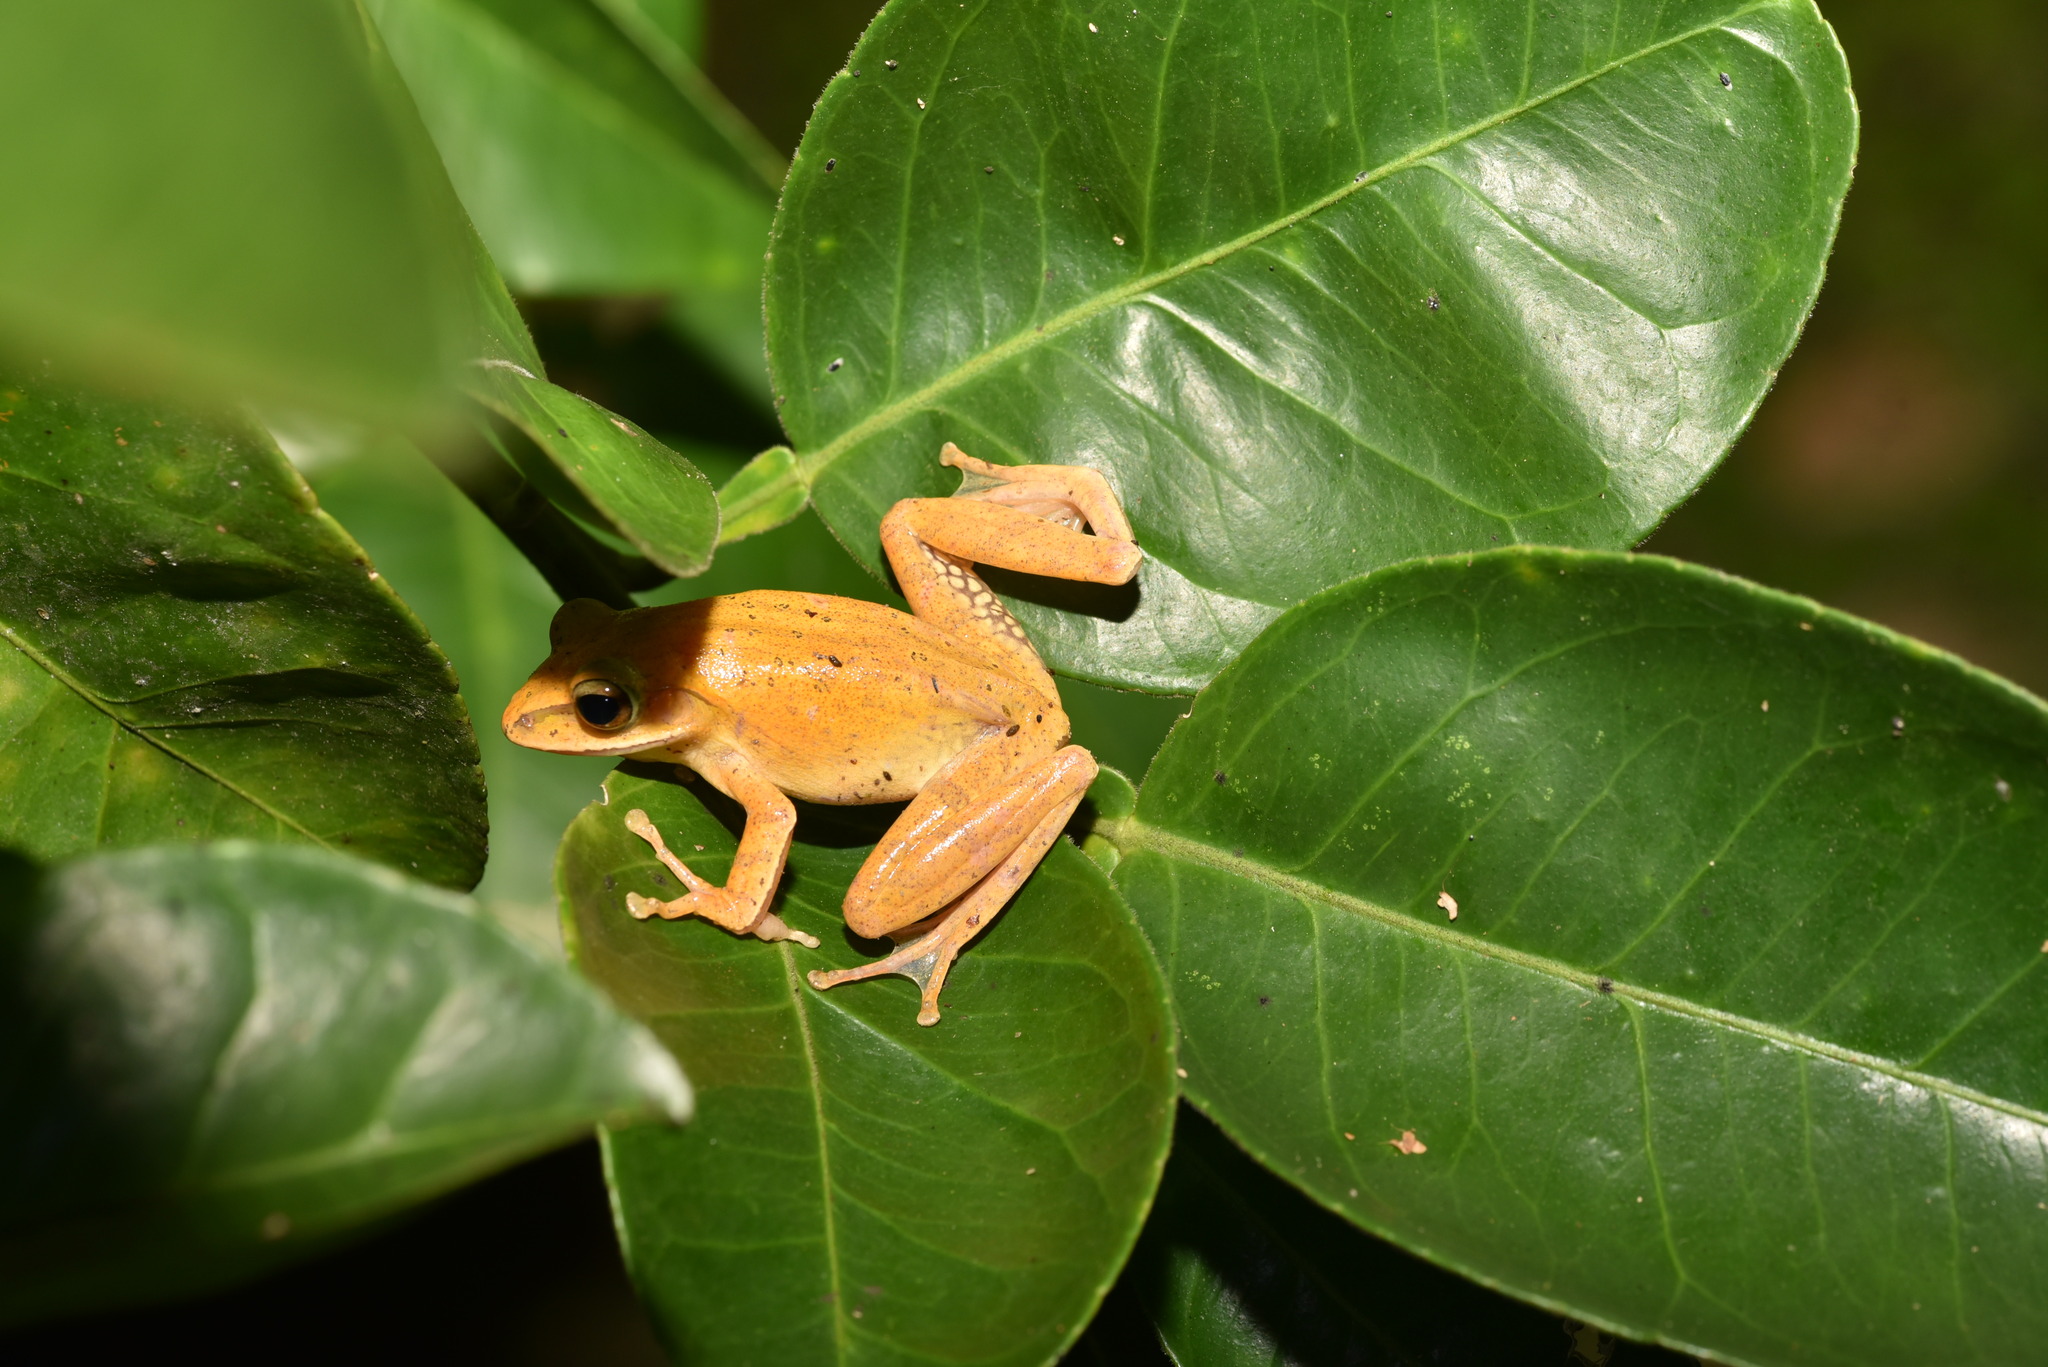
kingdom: Animalia
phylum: Chordata
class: Amphibia
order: Anura
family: Rhacophoridae
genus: Polypedates
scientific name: Polypedates braueri
